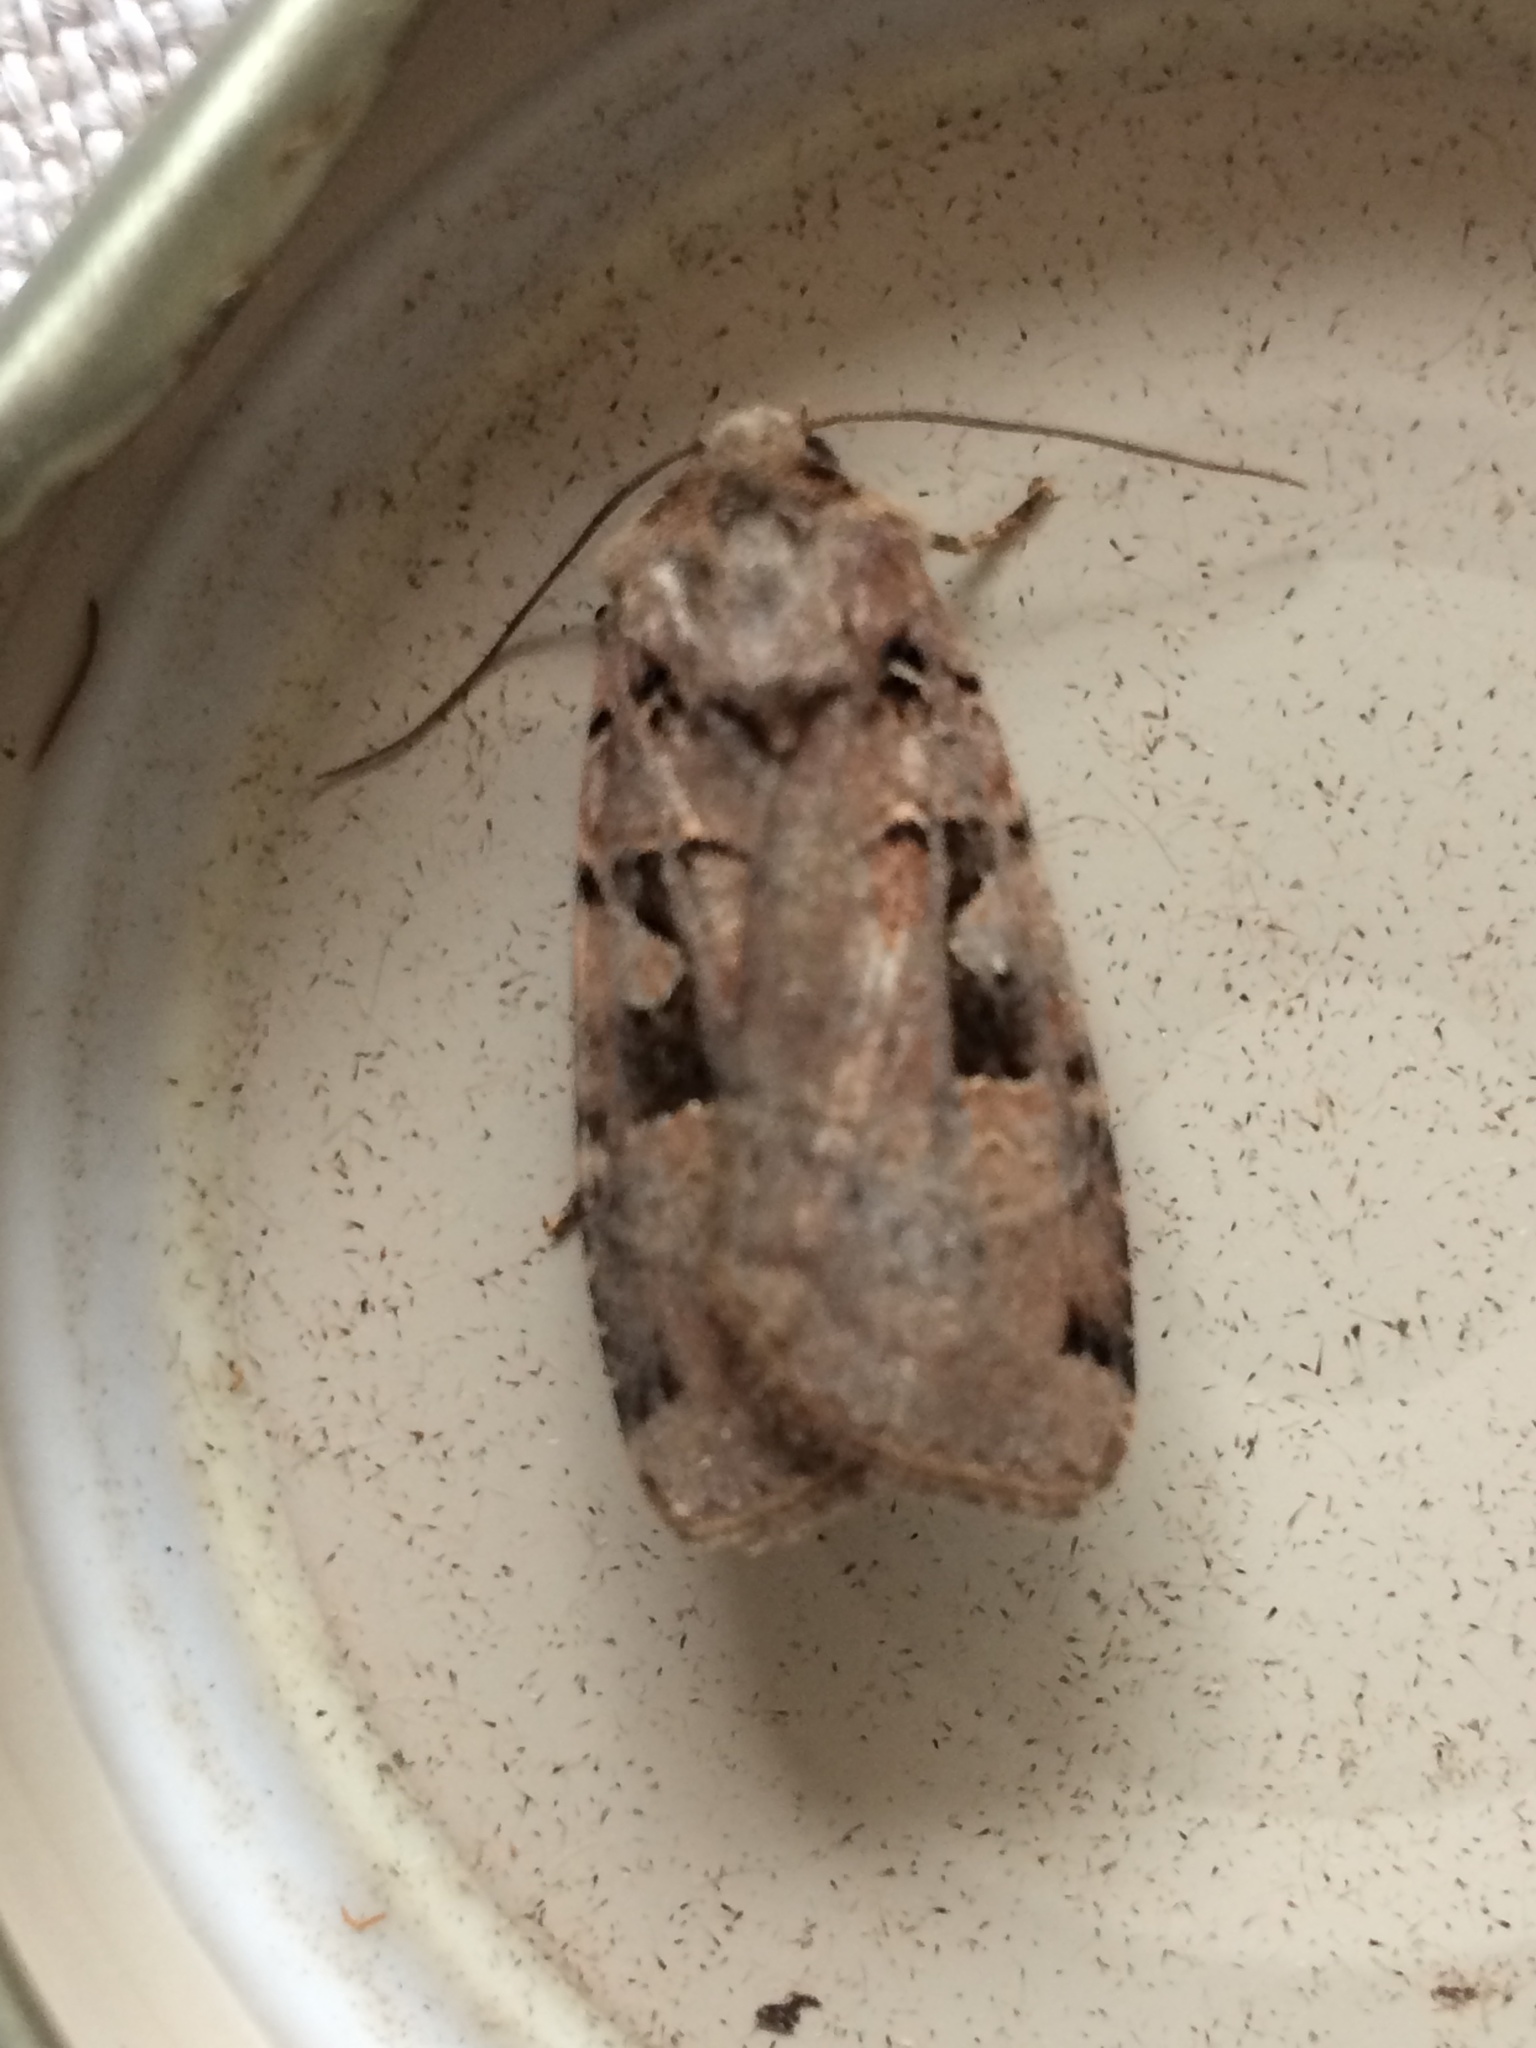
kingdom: Animalia
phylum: Arthropoda
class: Insecta
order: Lepidoptera
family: Noctuidae
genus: Xestia
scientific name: Xestia triangulum
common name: Double square-spot
